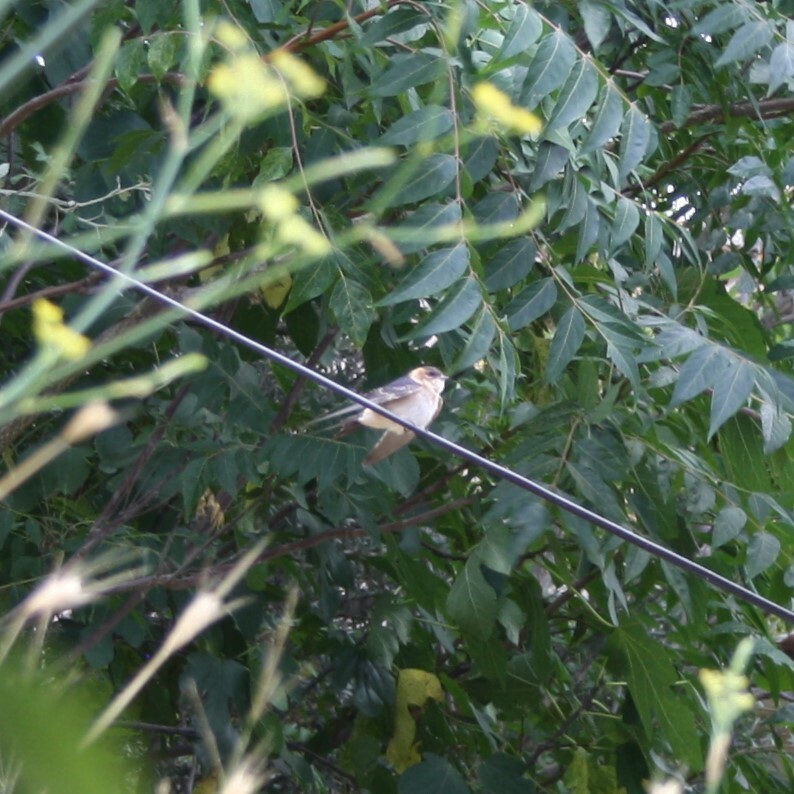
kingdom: Animalia
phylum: Chordata
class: Aves
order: Passeriformes
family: Hirundinidae
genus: Cecropis
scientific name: Cecropis daurica
